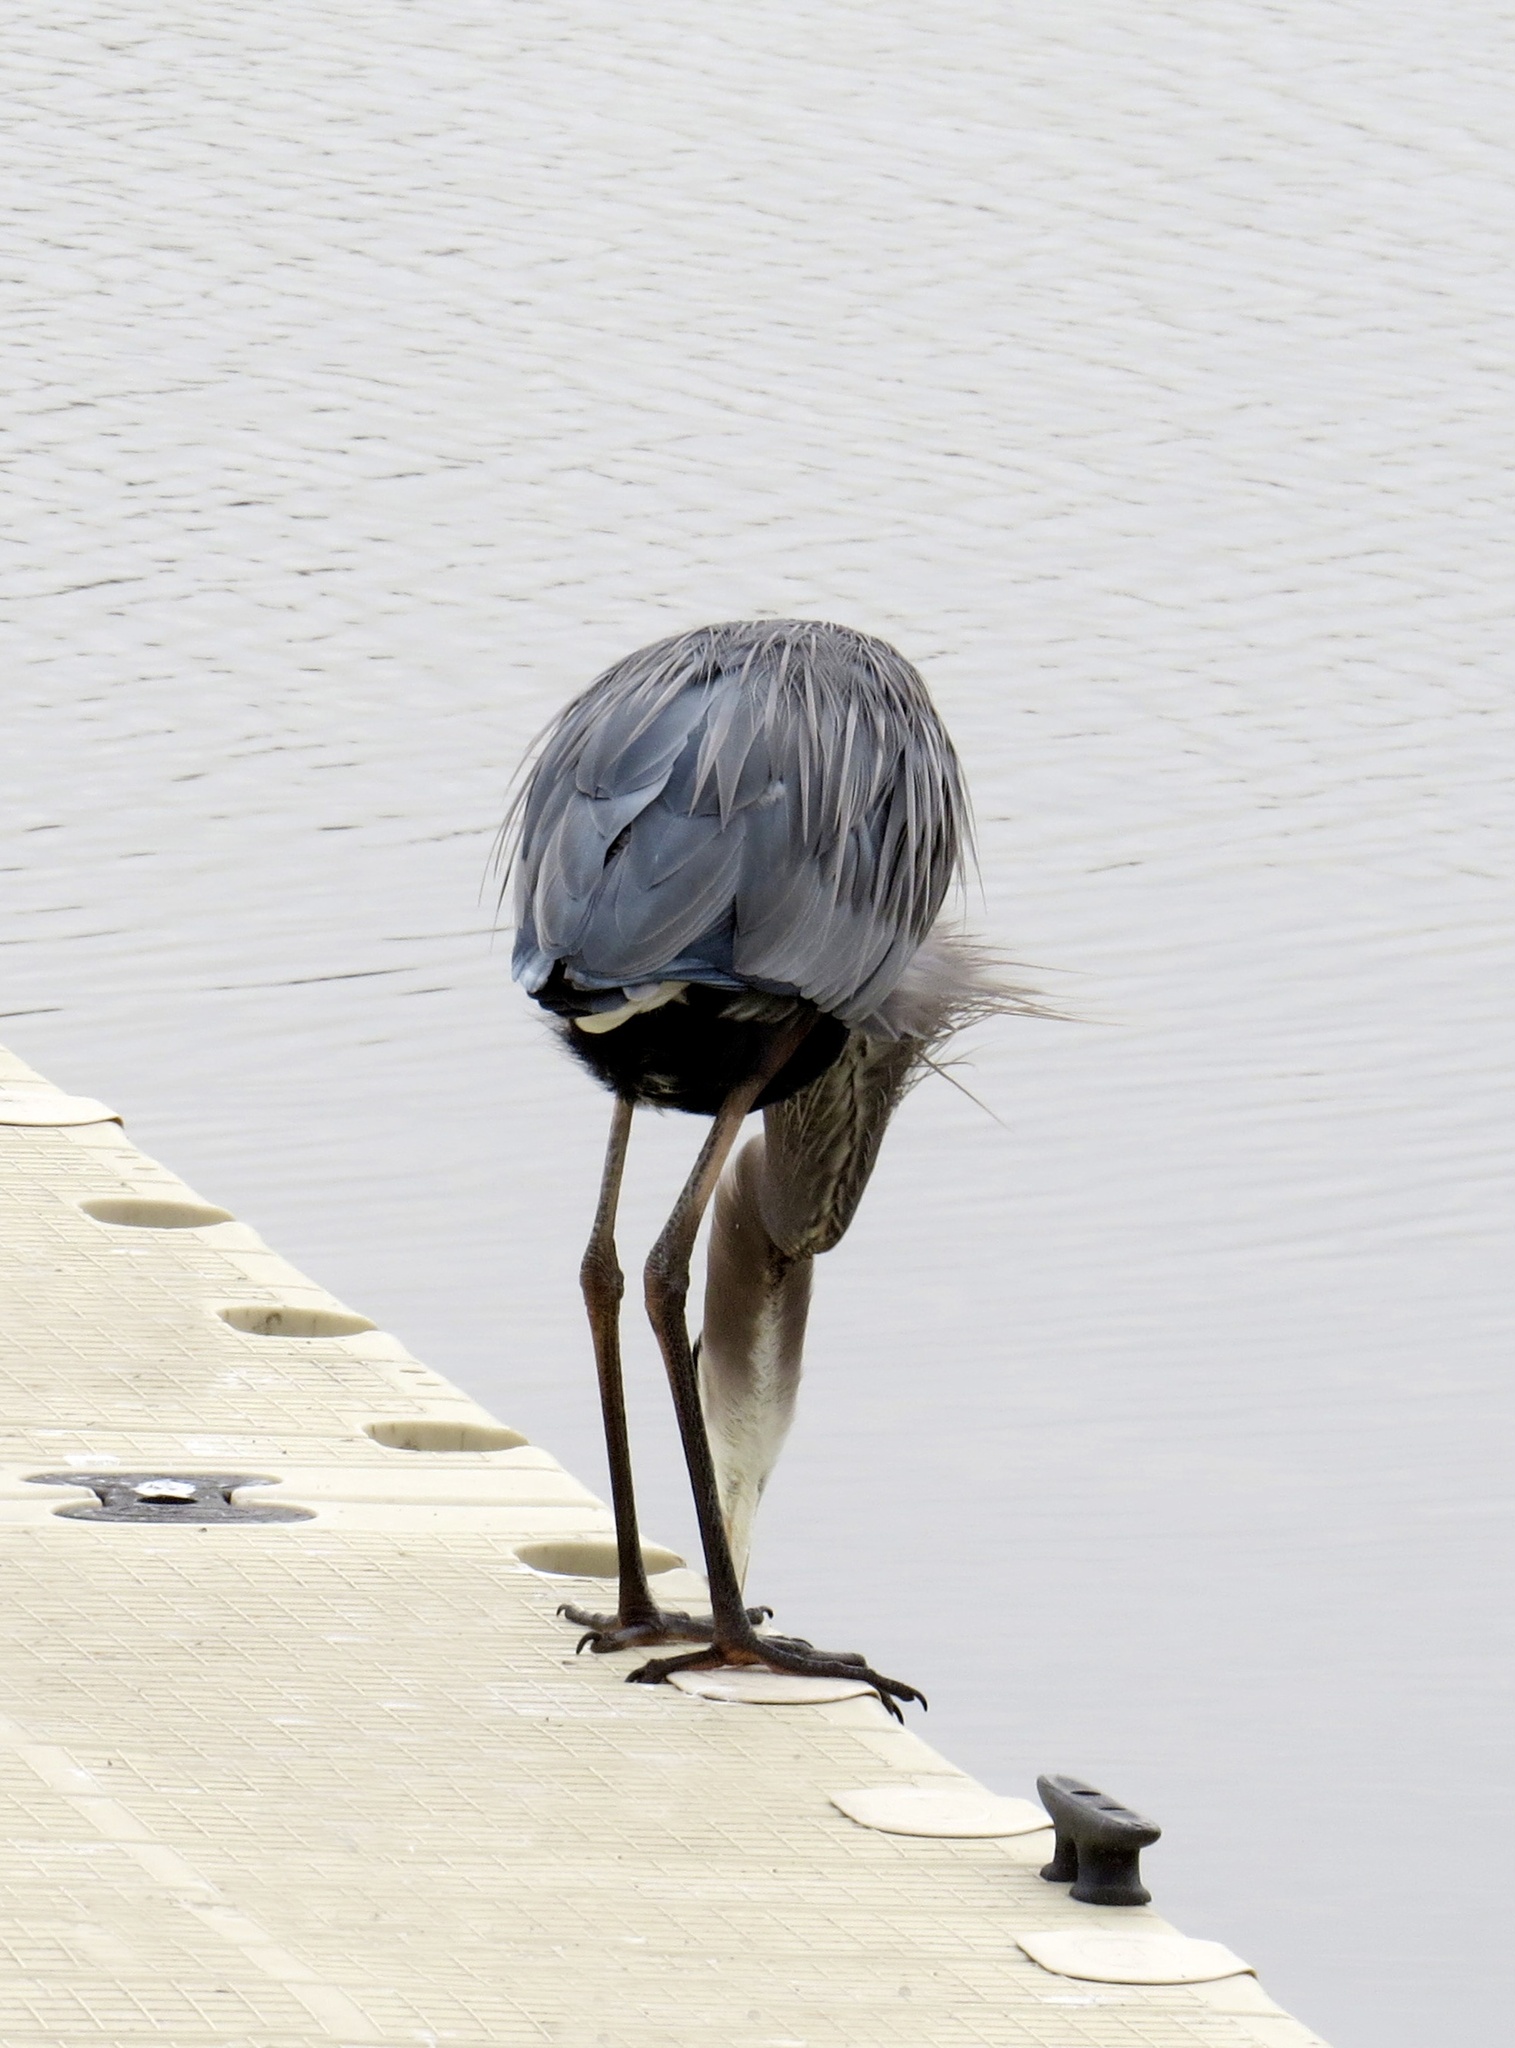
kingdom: Animalia
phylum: Chordata
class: Aves
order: Pelecaniformes
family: Ardeidae
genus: Ardea
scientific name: Ardea herodias
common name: Great blue heron
